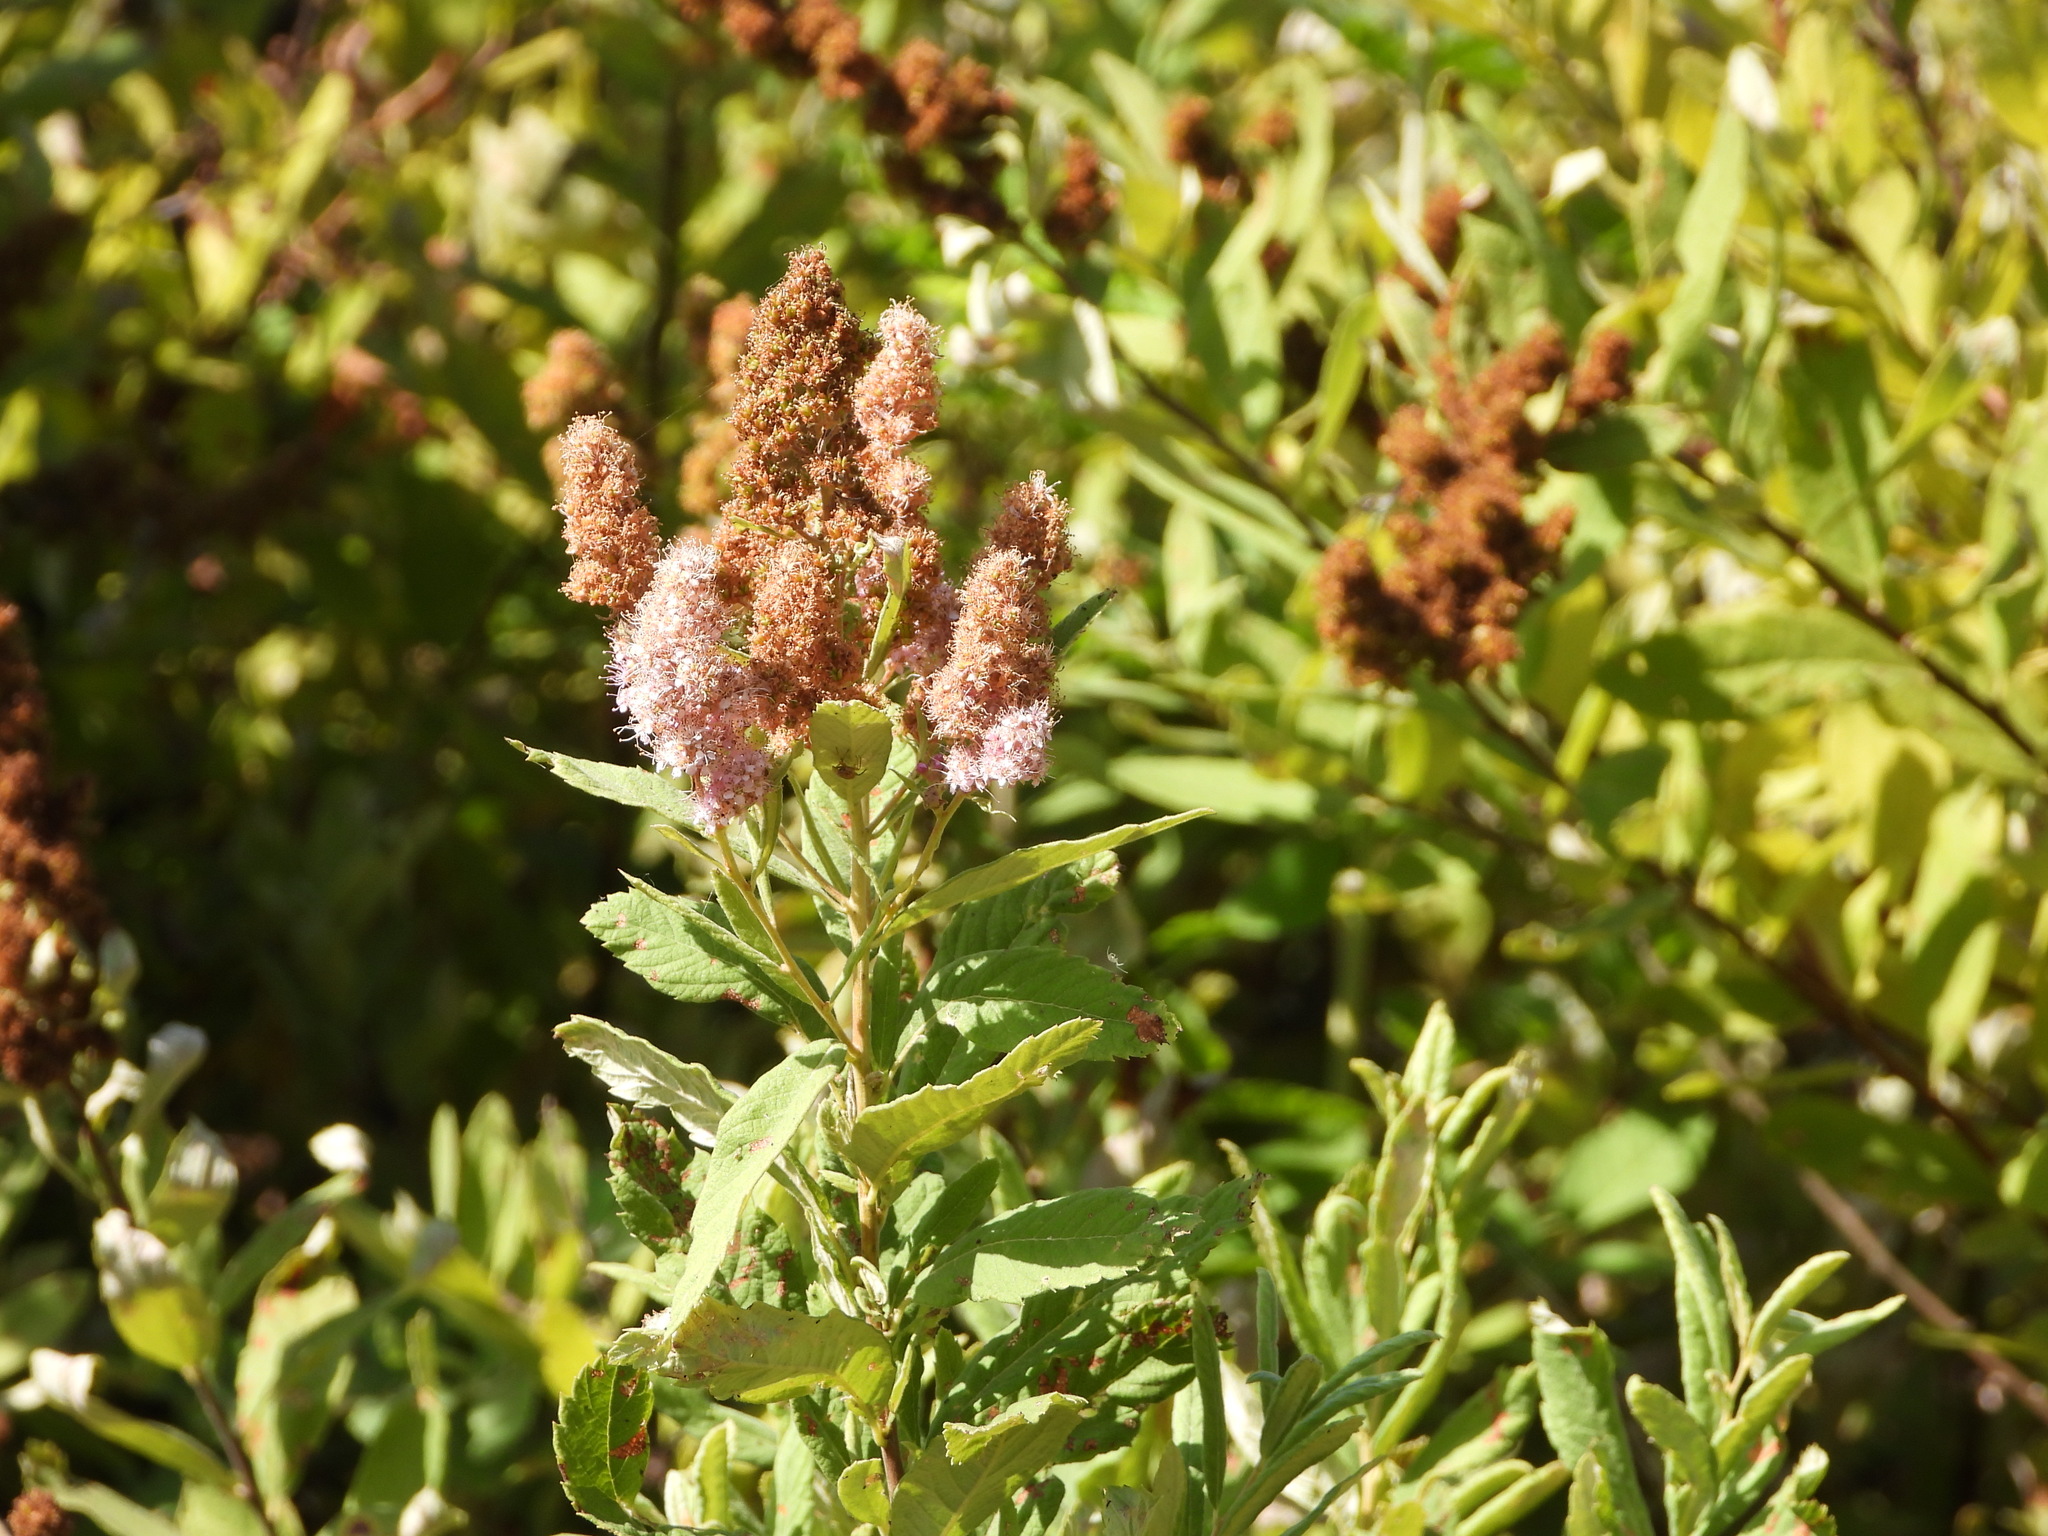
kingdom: Plantae
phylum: Tracheophyta
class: Magnoliopsida
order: Rosales
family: Rosaceae
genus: Spiraea
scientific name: Spiraea douglasii
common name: Steeplebush
